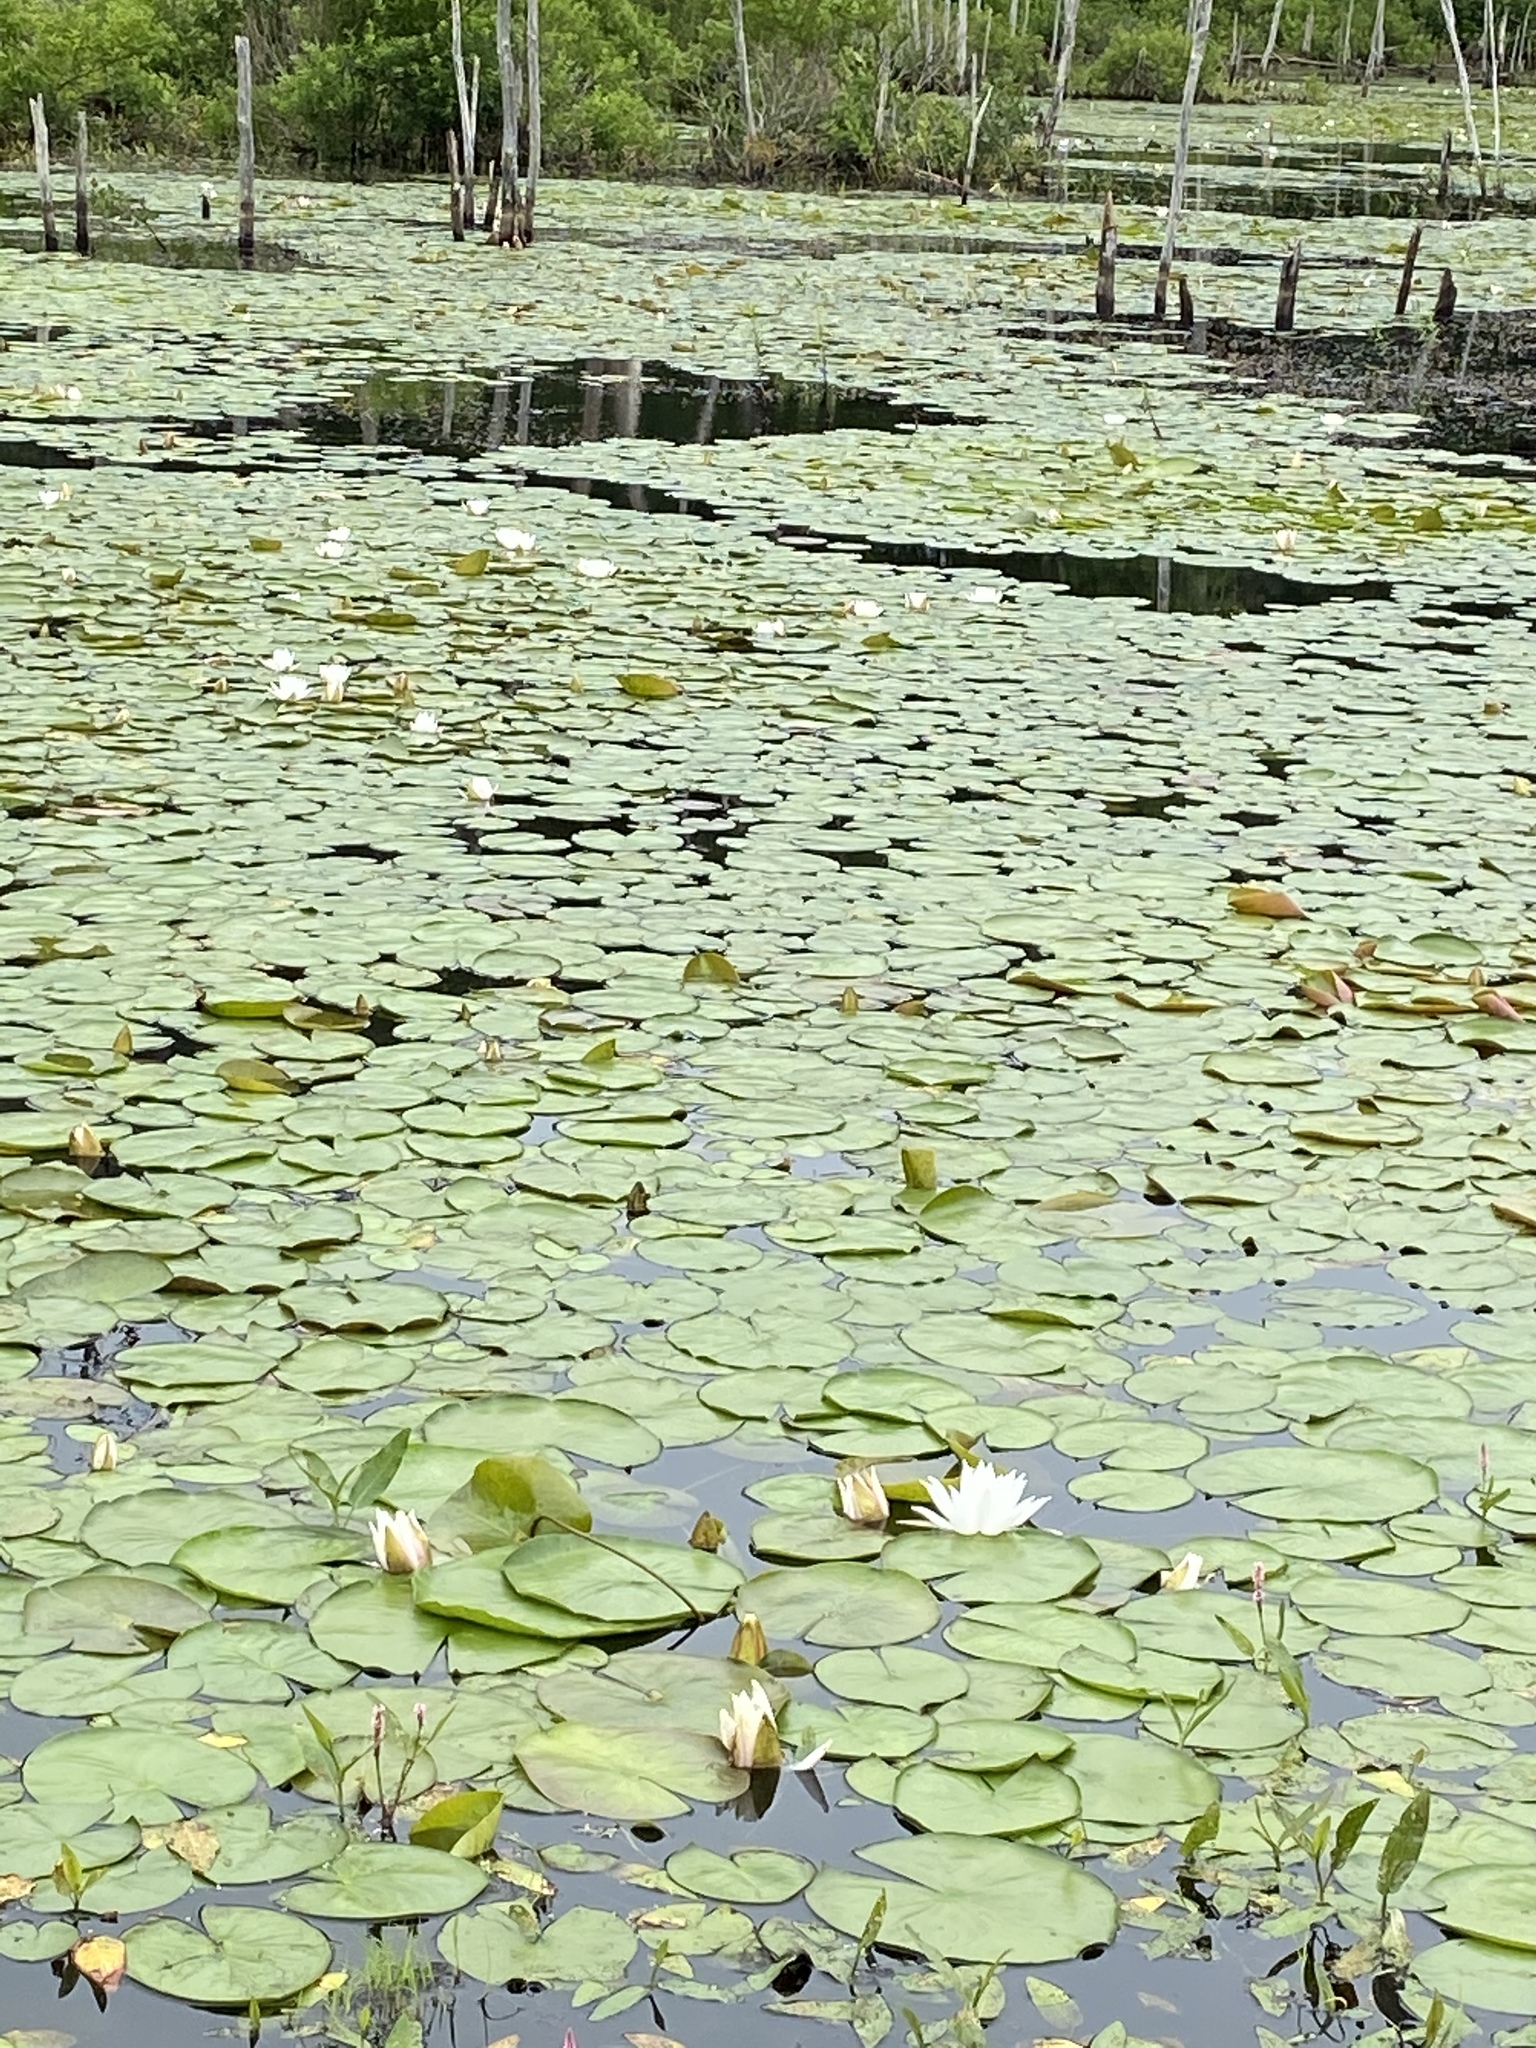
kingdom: Plantae
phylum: Tracheophyta
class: Magnoliopsida
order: Nymphaeales
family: Nymphaeaceae
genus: Nymphaea
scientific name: Nymphaea odorata
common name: Fragrant water-lily
